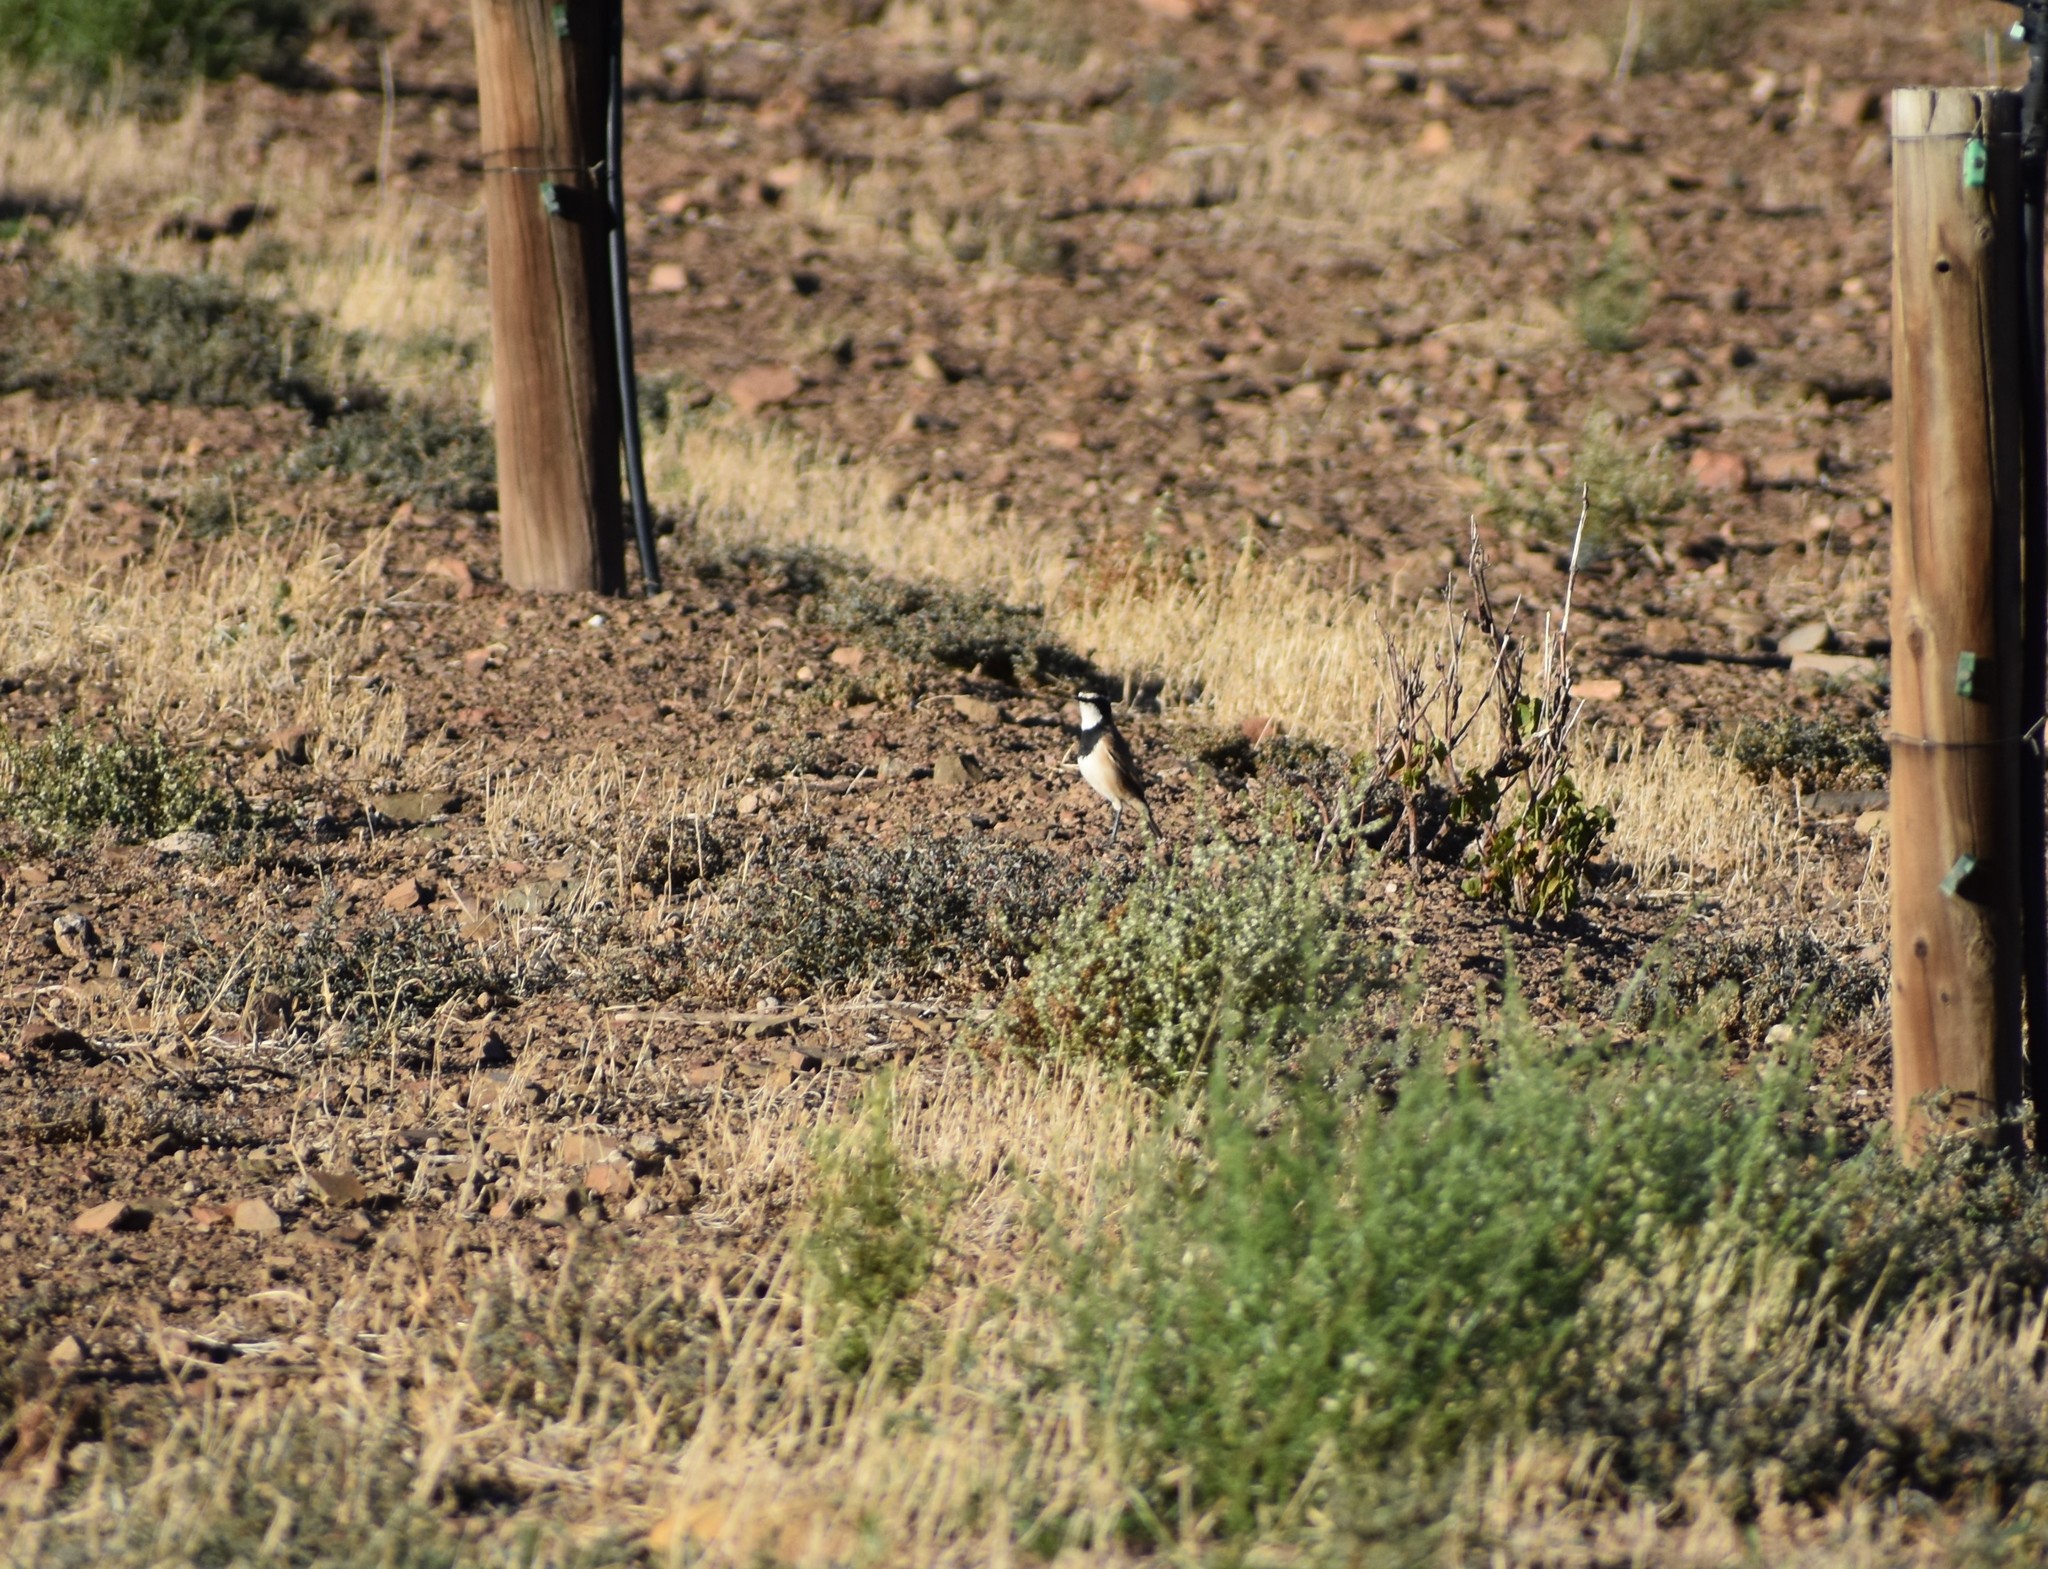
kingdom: Animalia
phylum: Chordata
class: Aves
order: Passeriformes
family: Muscicapidae
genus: Oenanthe
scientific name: Oenanthe pileata
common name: Capped wheatear
